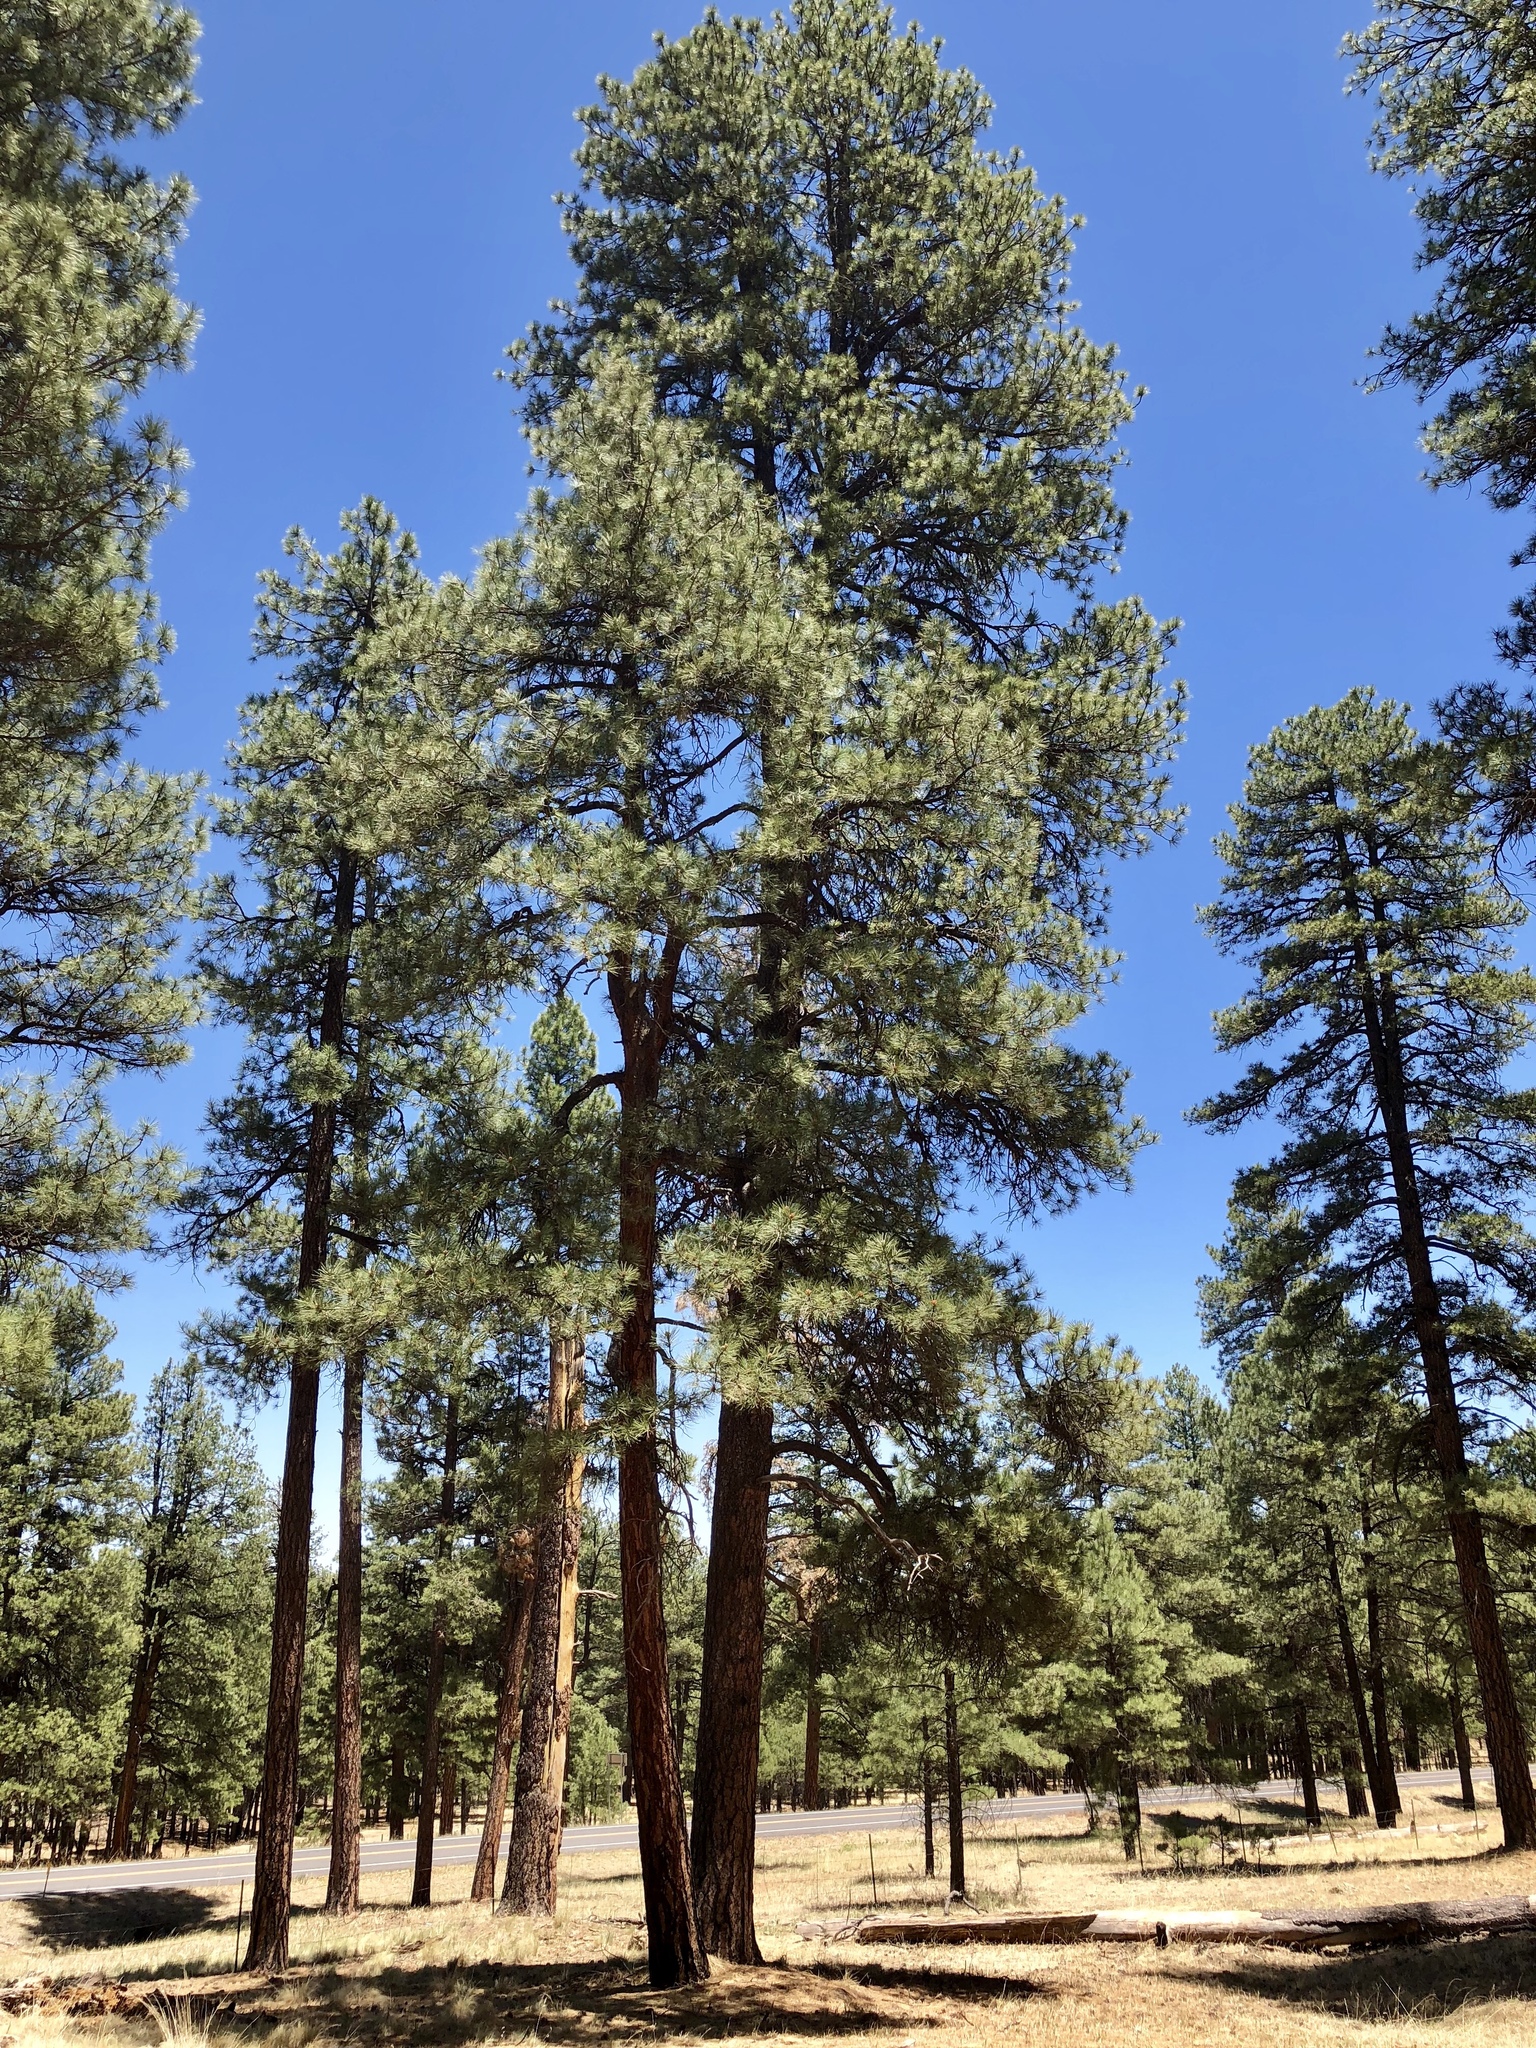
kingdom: Plantae
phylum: Tracheophyta
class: Pinopsida
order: Pinales
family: Pinaceae
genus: Pinus
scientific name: Pinus ponderosa
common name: Western yellow-pine
